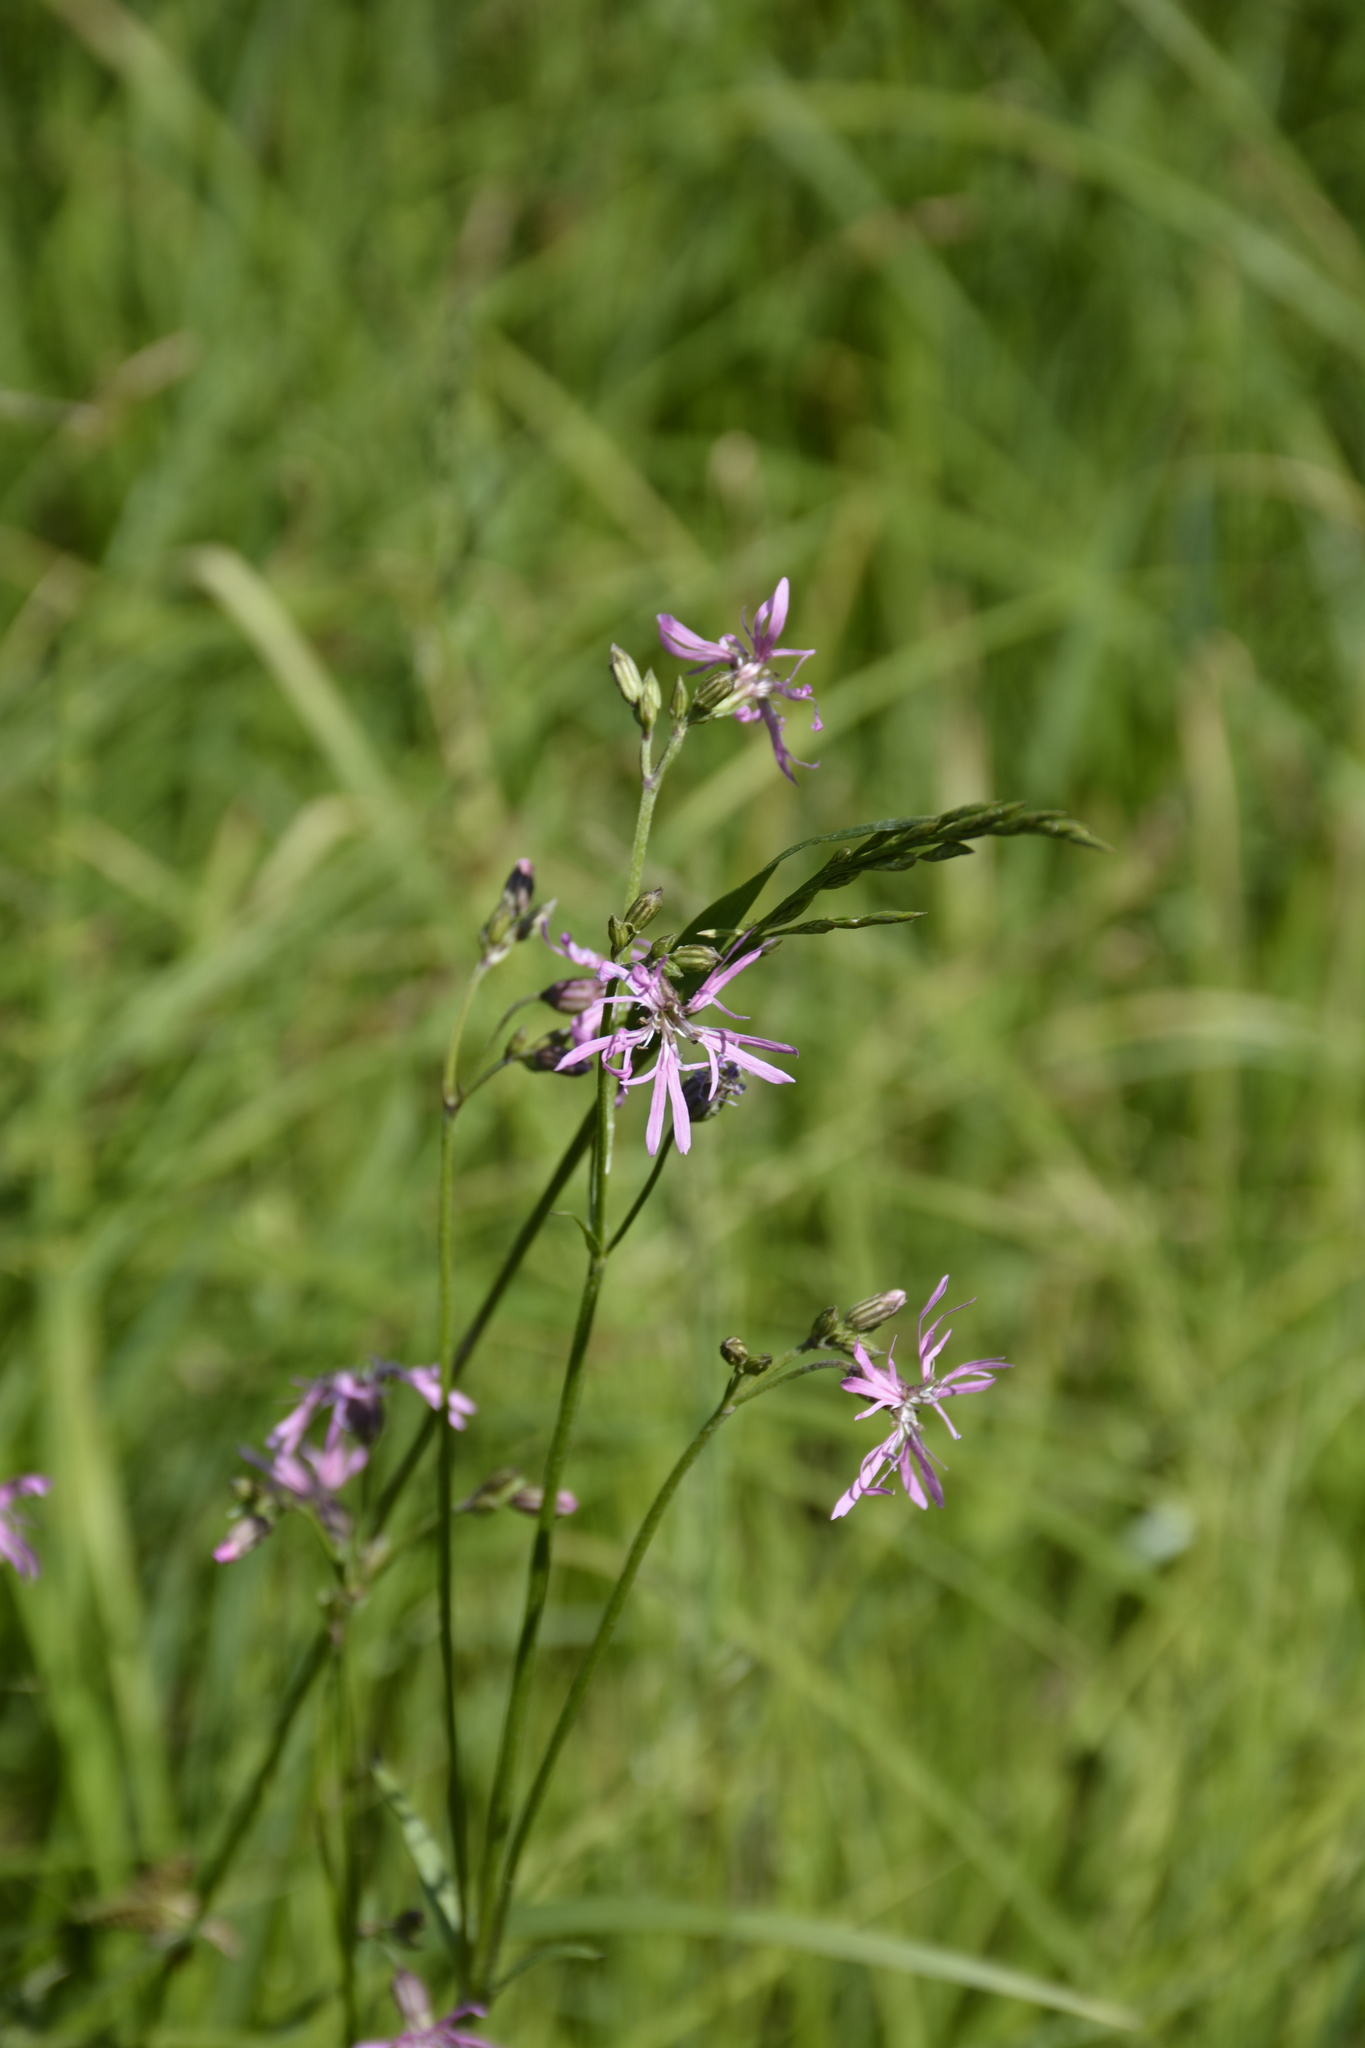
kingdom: Plantae
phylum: Tracheophyta
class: Magnoliopsida
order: Caryophyllales
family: Caryophyllaceae
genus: Silene
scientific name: Silene flos-cuculi
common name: Ragged-robin
